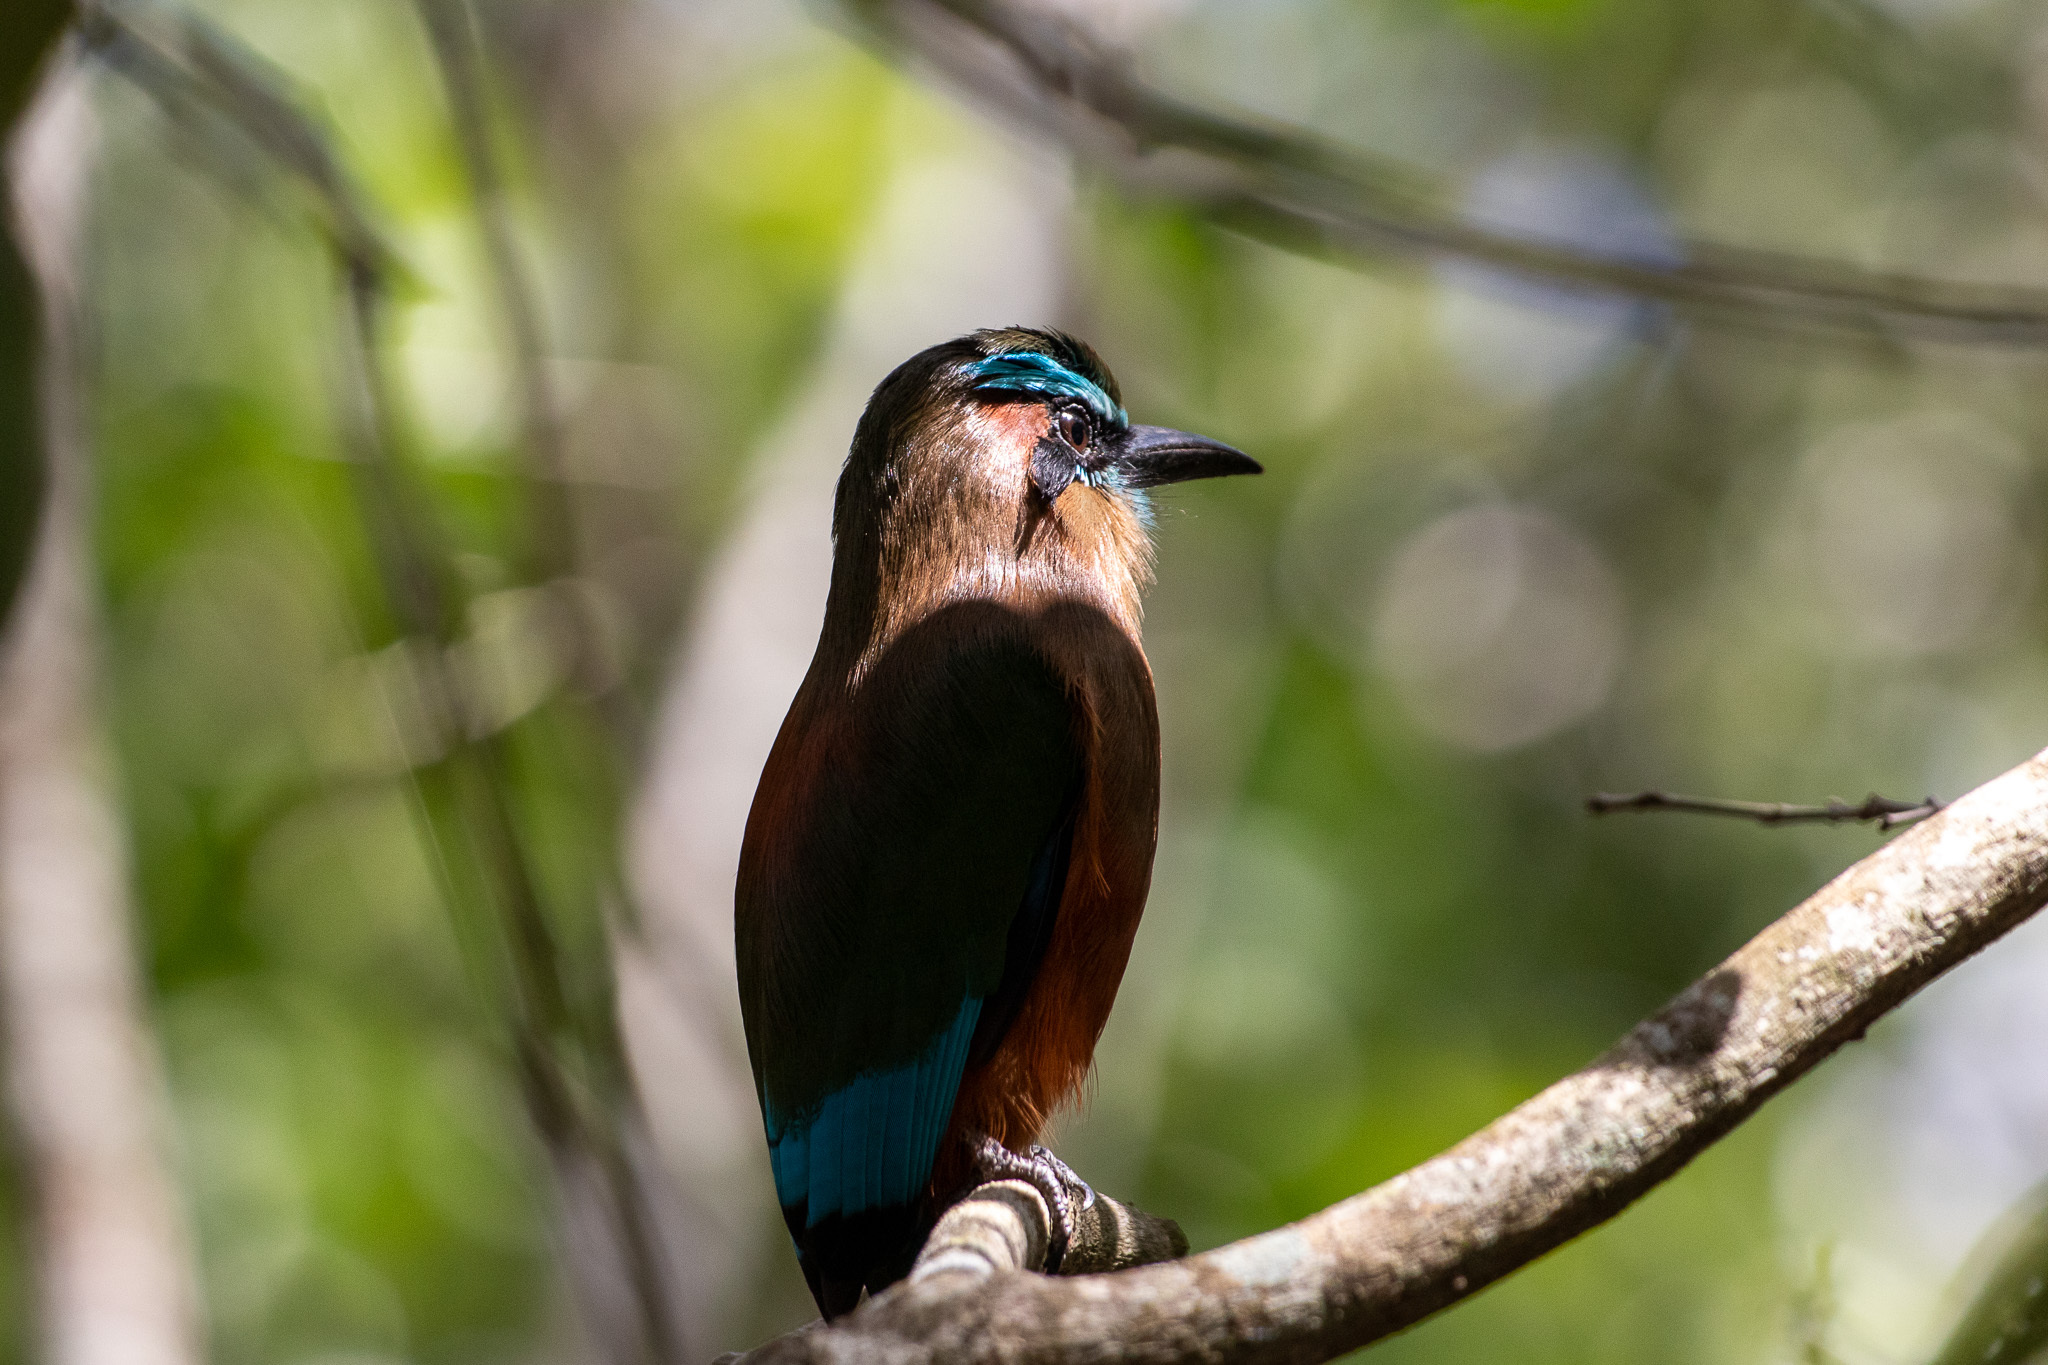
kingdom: Animalia
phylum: Chordata
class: Aves
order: Coraciiformes
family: Momotidae
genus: Eumomota
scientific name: Eumomota superciliosa
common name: Turquoise-browed motmot
